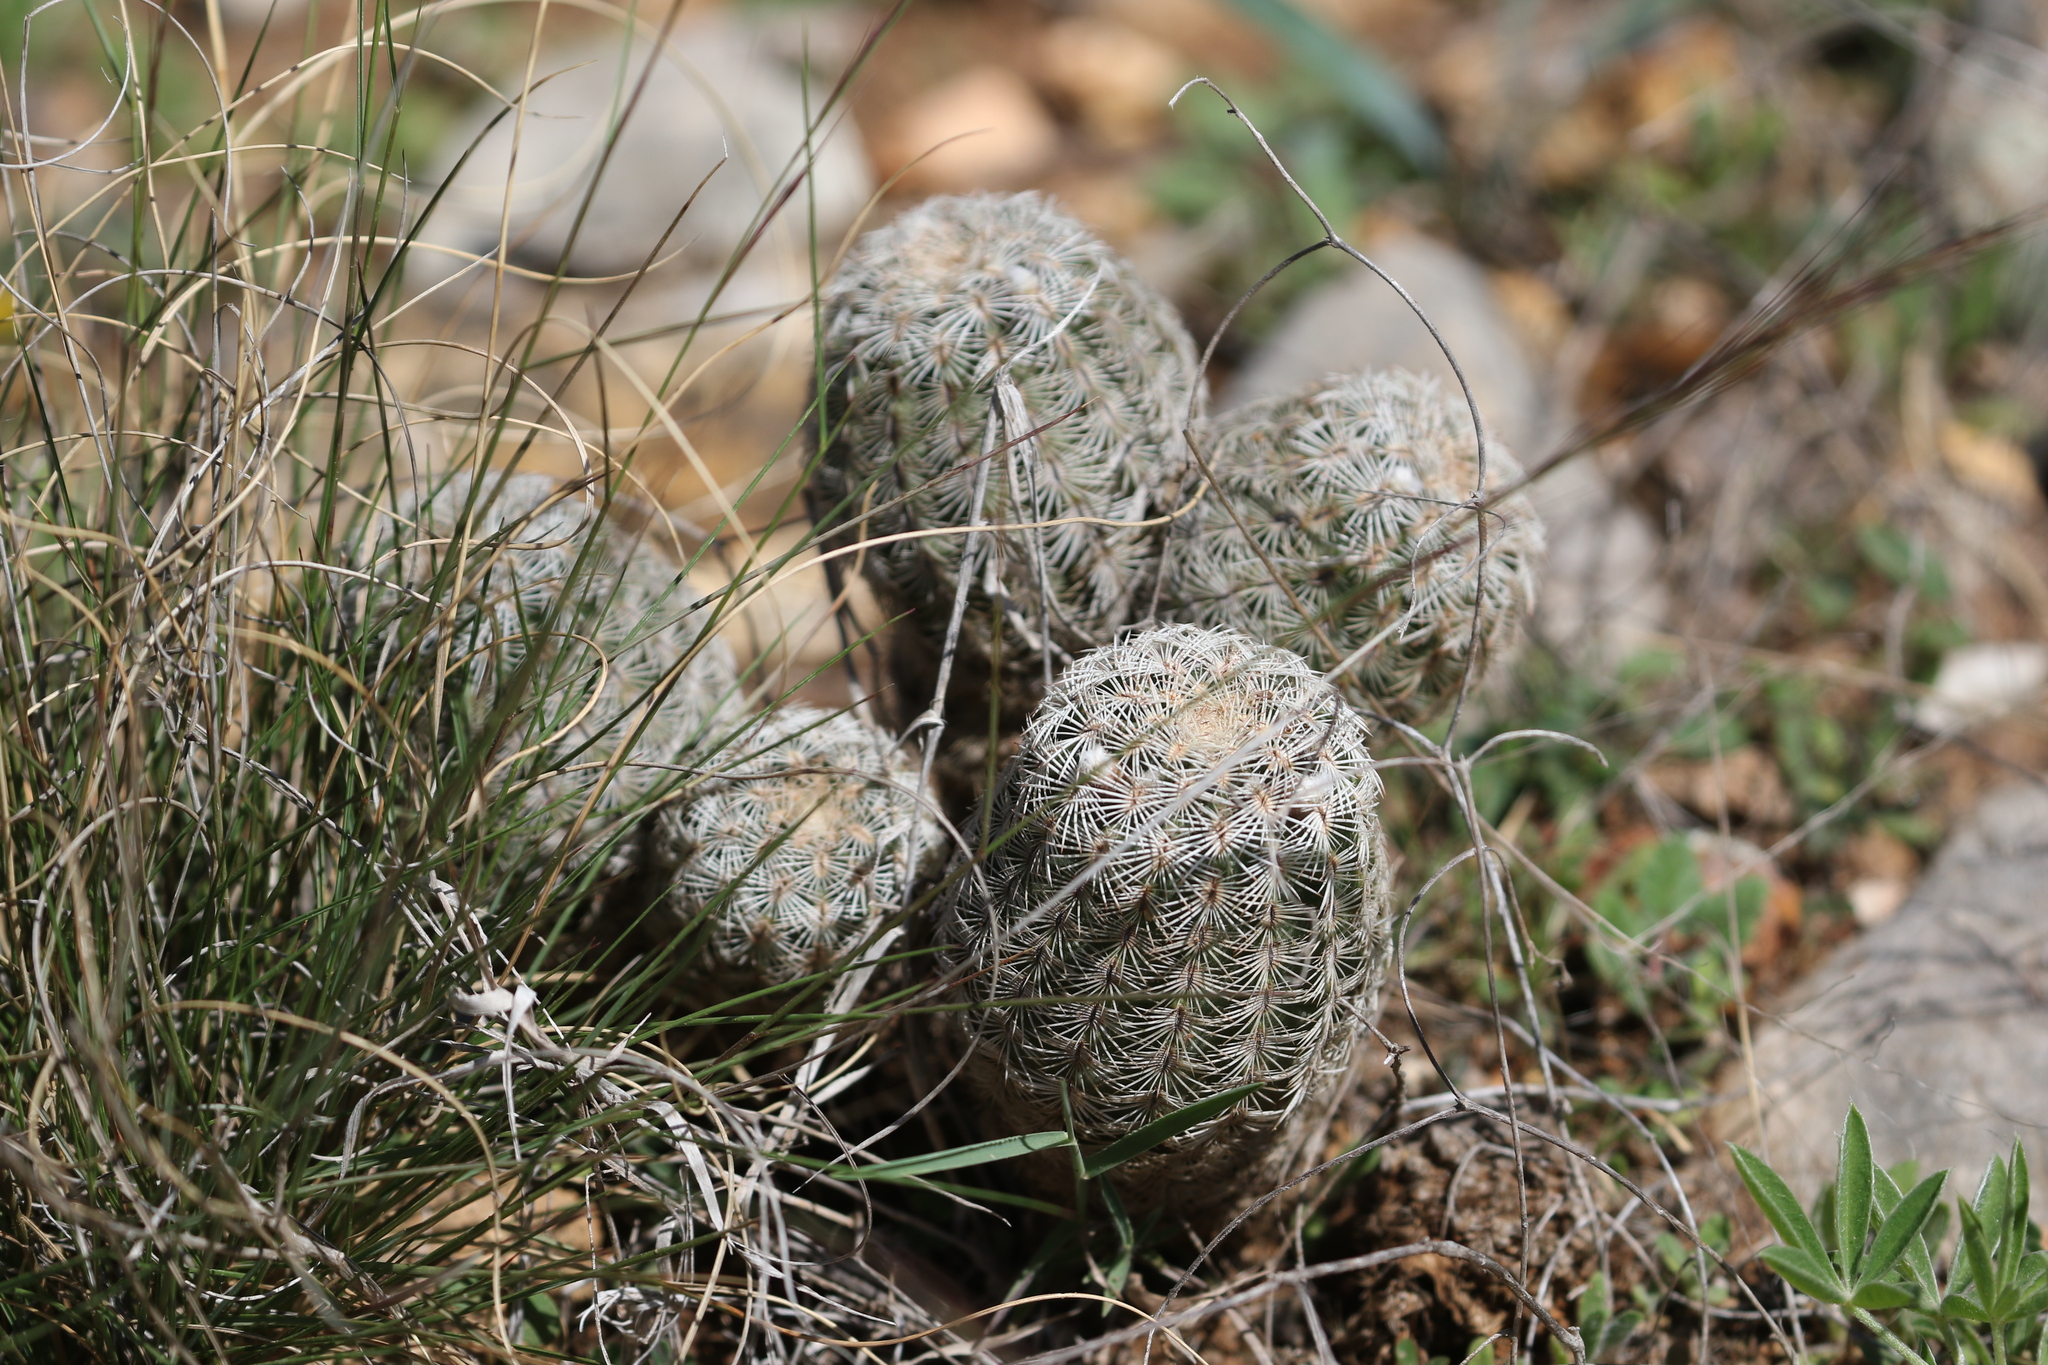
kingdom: Plantae
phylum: Tracheophyta
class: Magnoliopsida
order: Caryophyllales
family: Cactaceae
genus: Echinocereus
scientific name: Echinocereus reichenbachii
